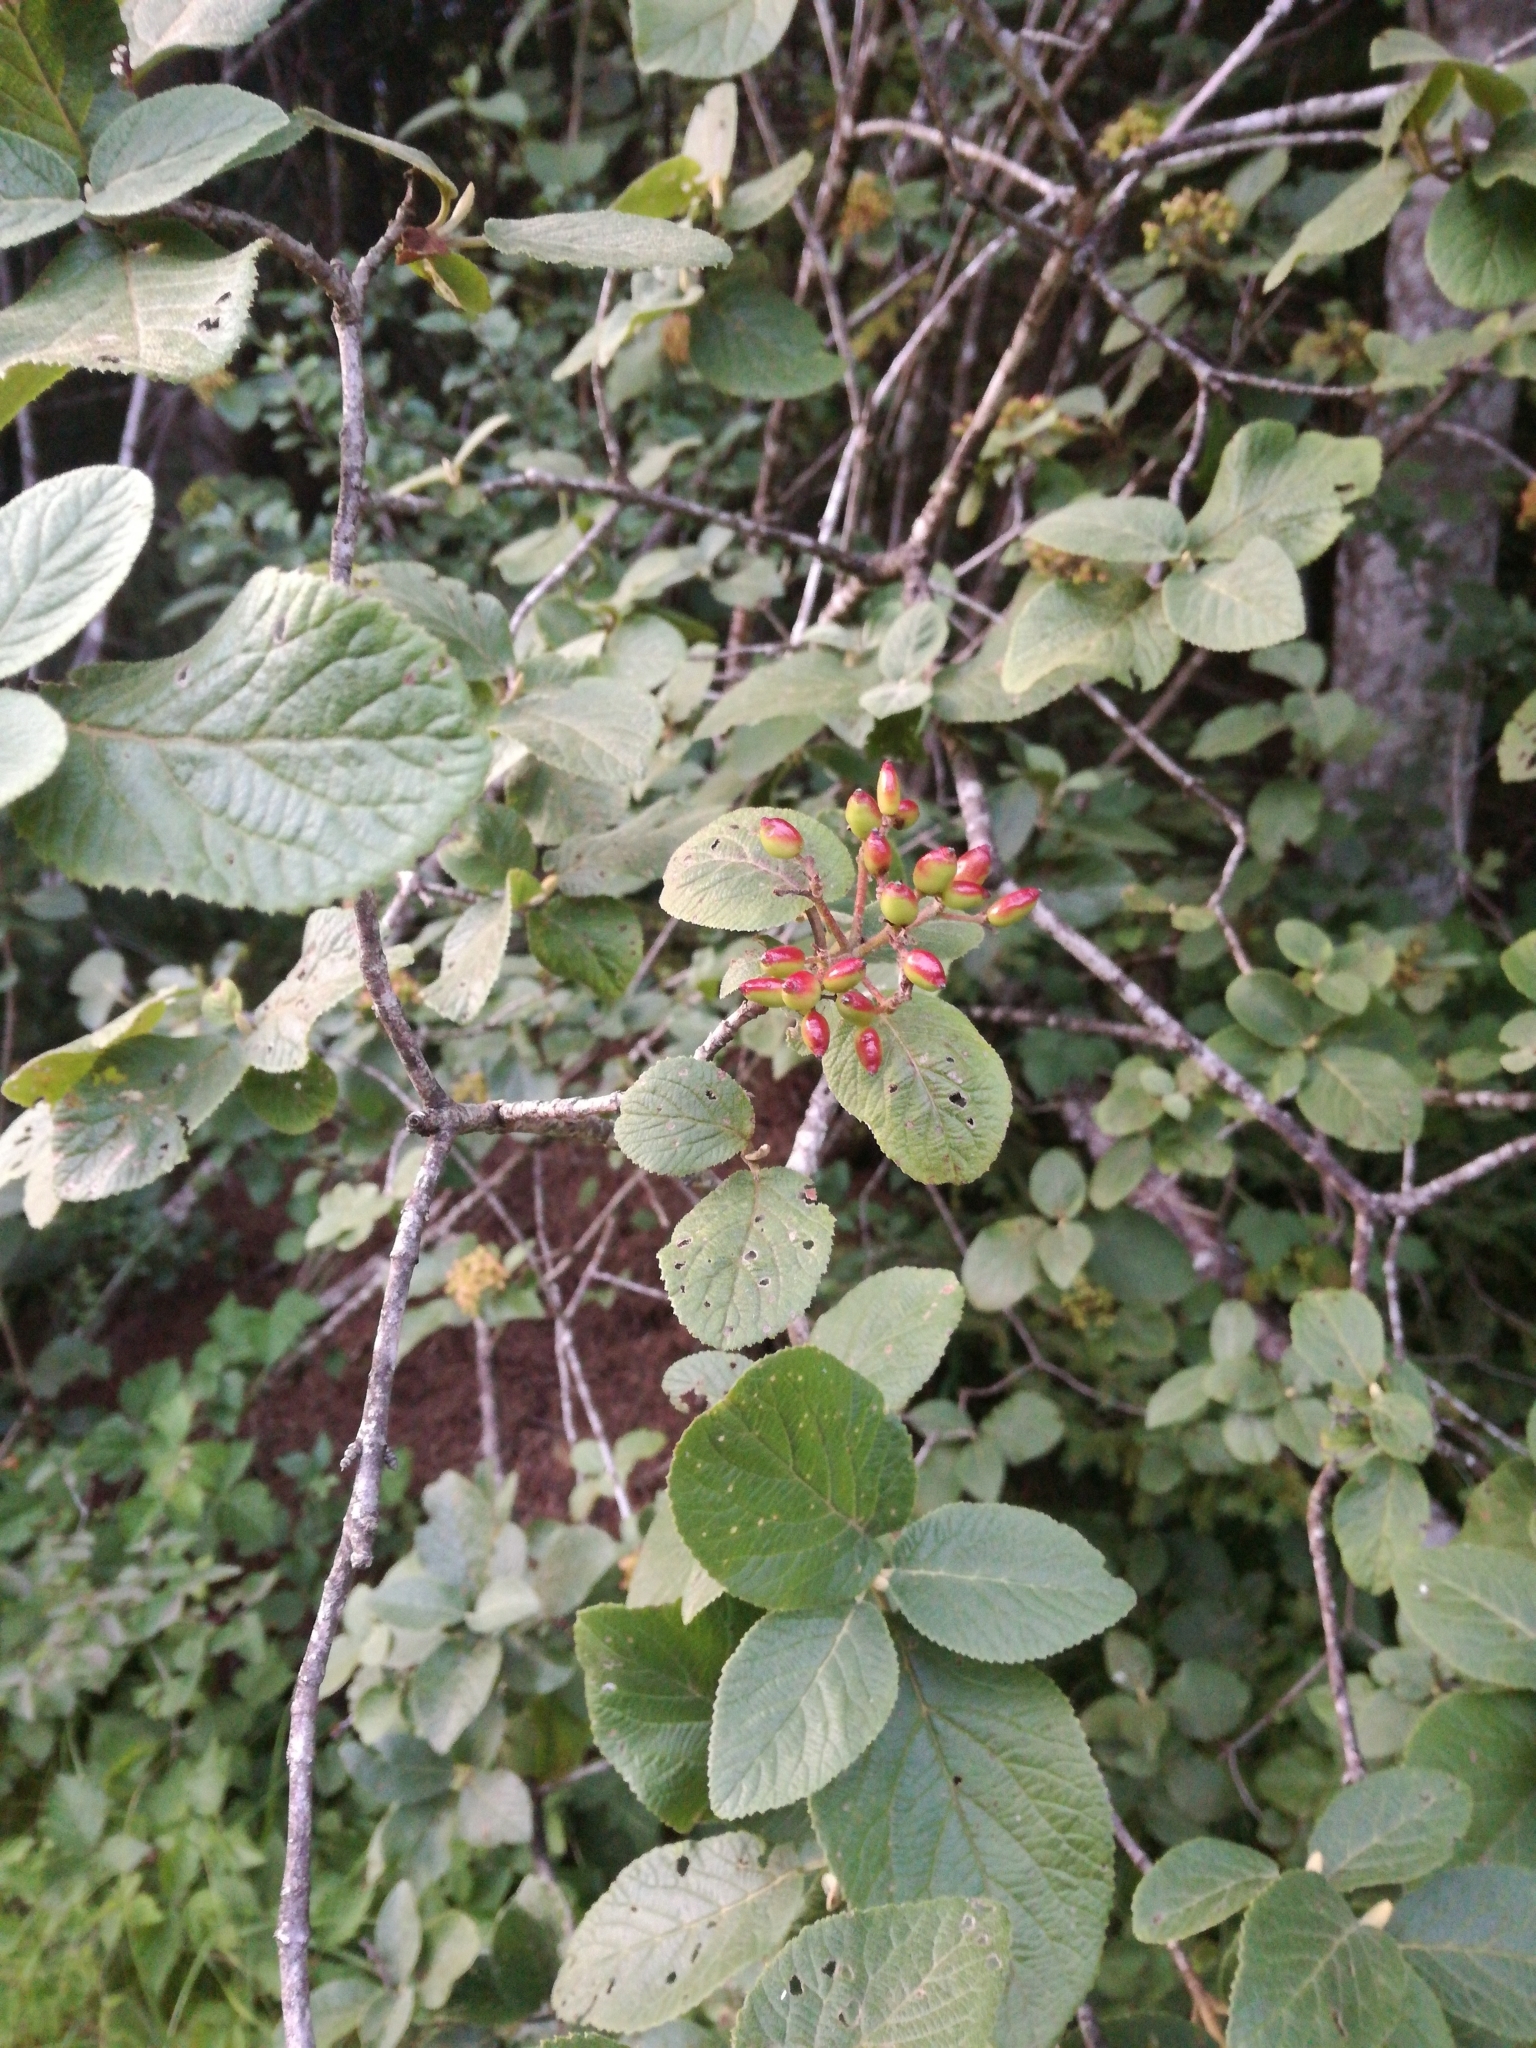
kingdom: Plantae
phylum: Tracheophyta
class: Magnoliopsida
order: Dipsacales
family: Viburnaceae
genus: Viburnum
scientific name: Viburnum lantana
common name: Wayfaring tree
